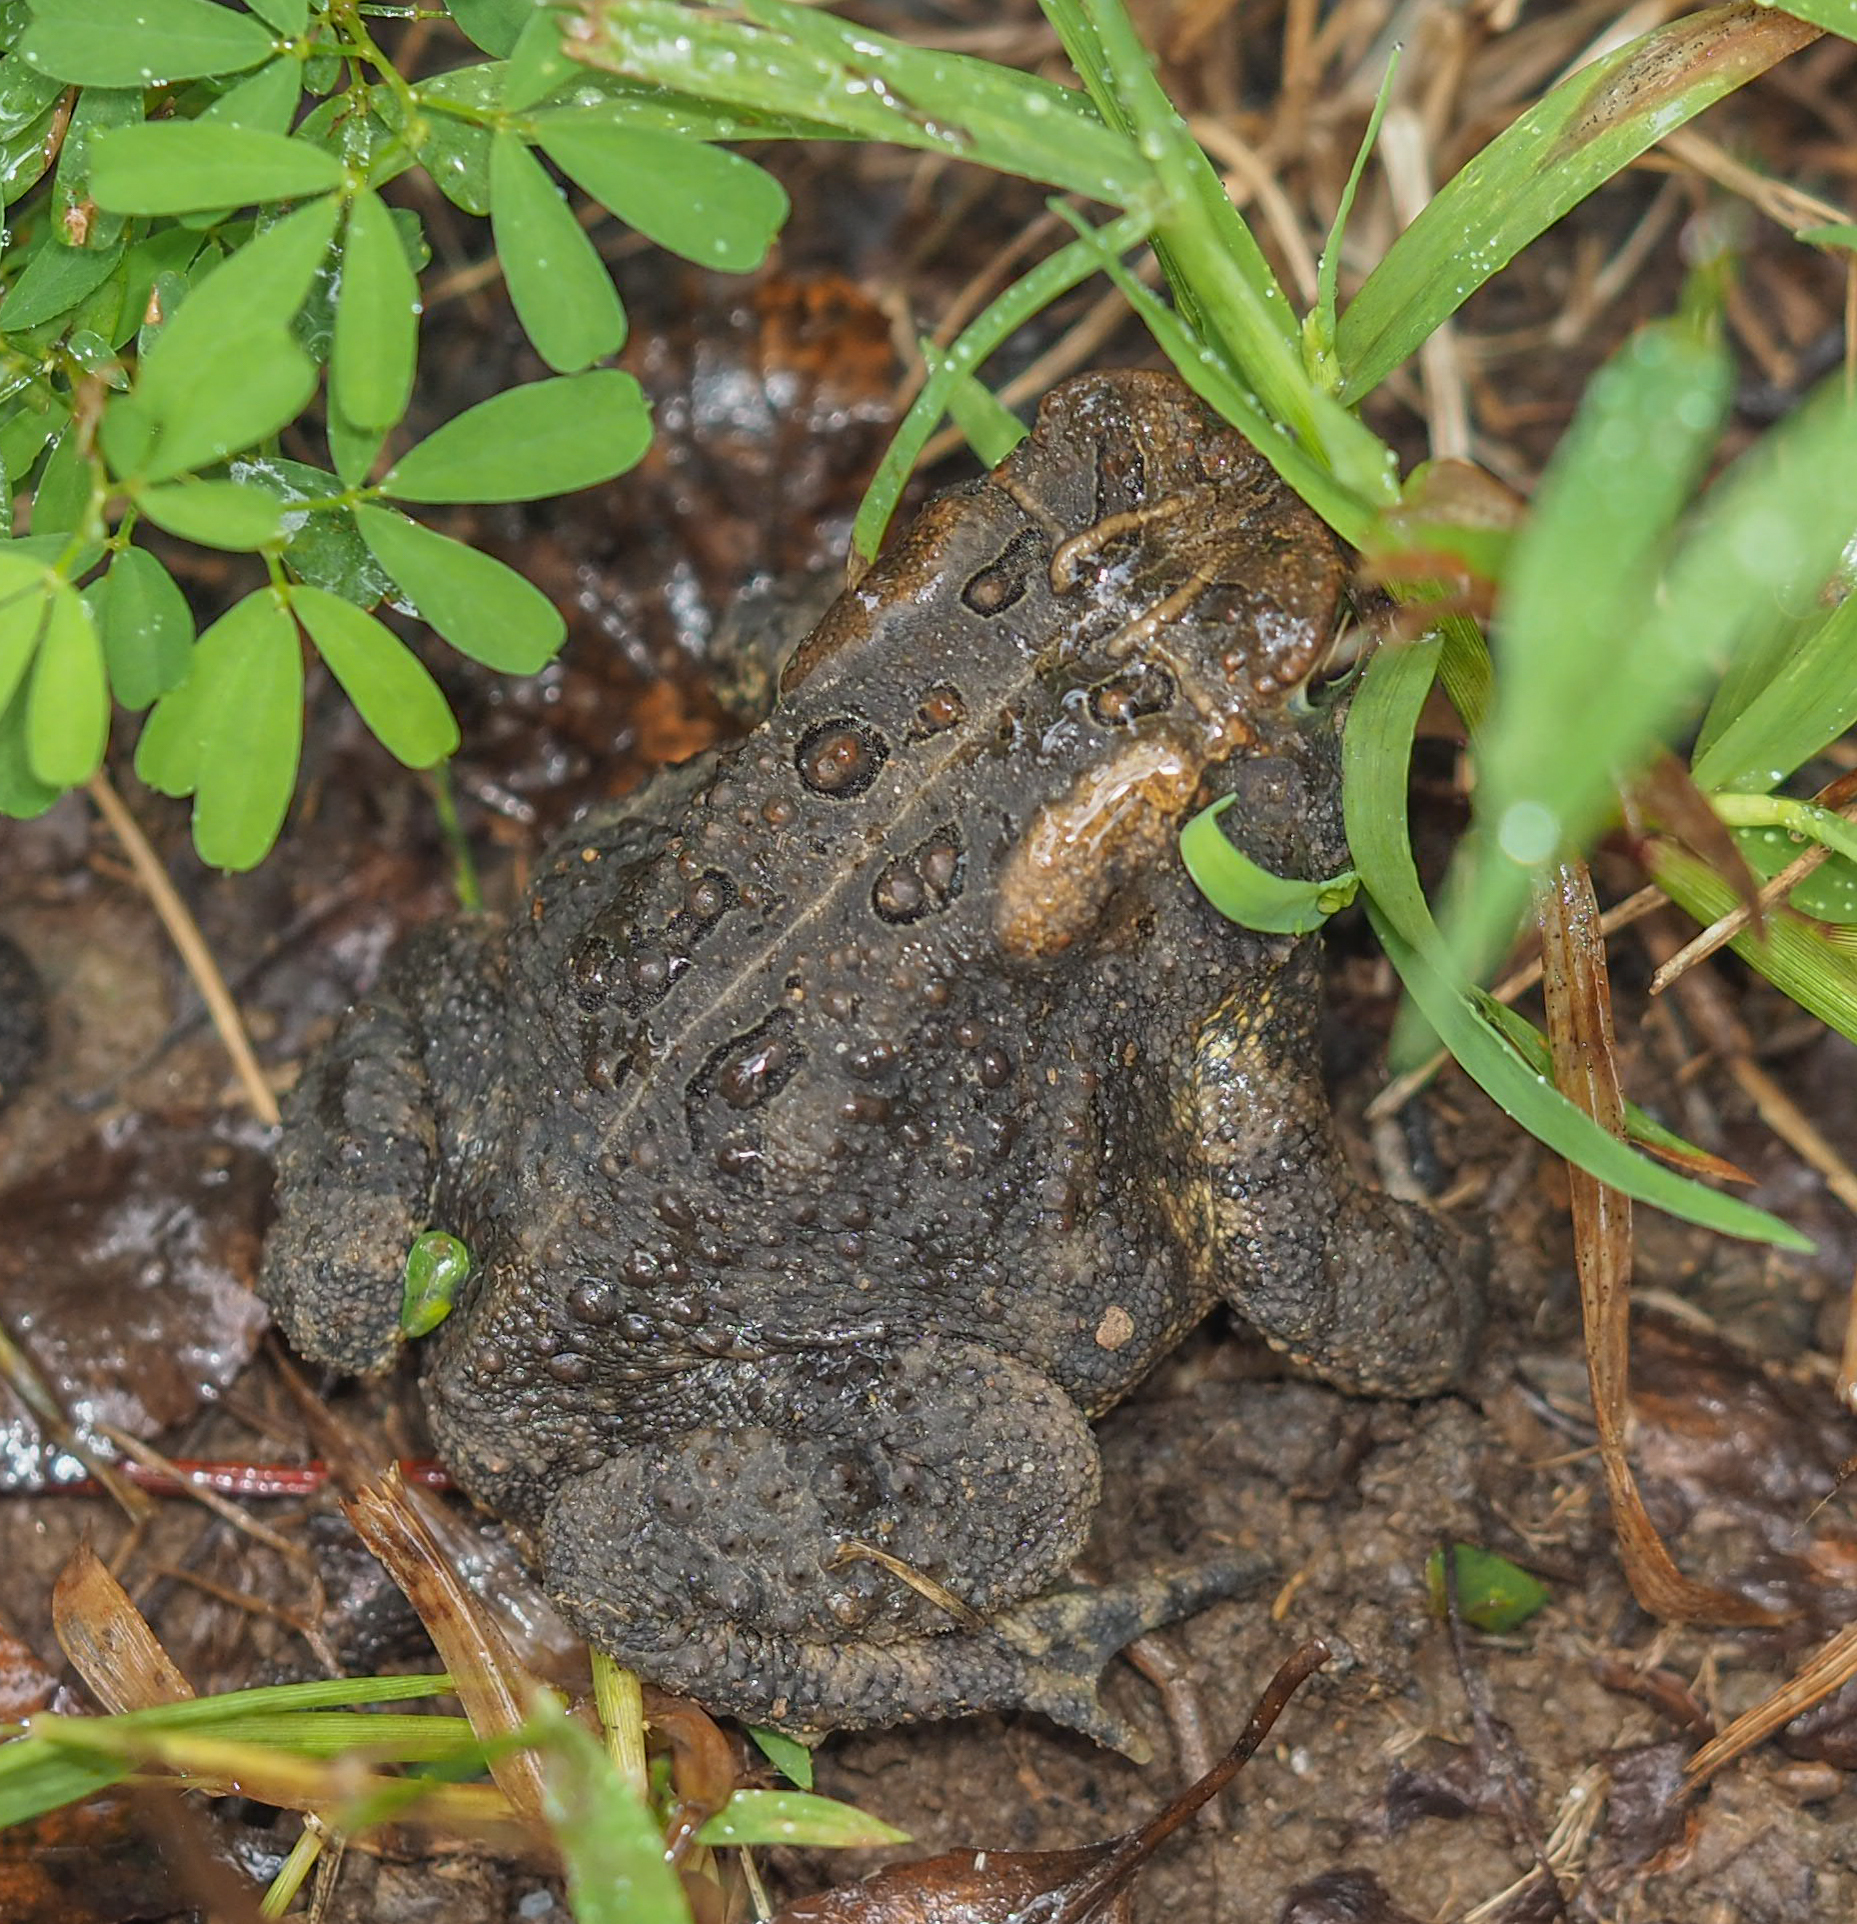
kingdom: Animalia
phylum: Chordata
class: Amphibia
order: Anura
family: Bufonidae
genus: Anaxyrus
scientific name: Anaxyrus americanus
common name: American toad
